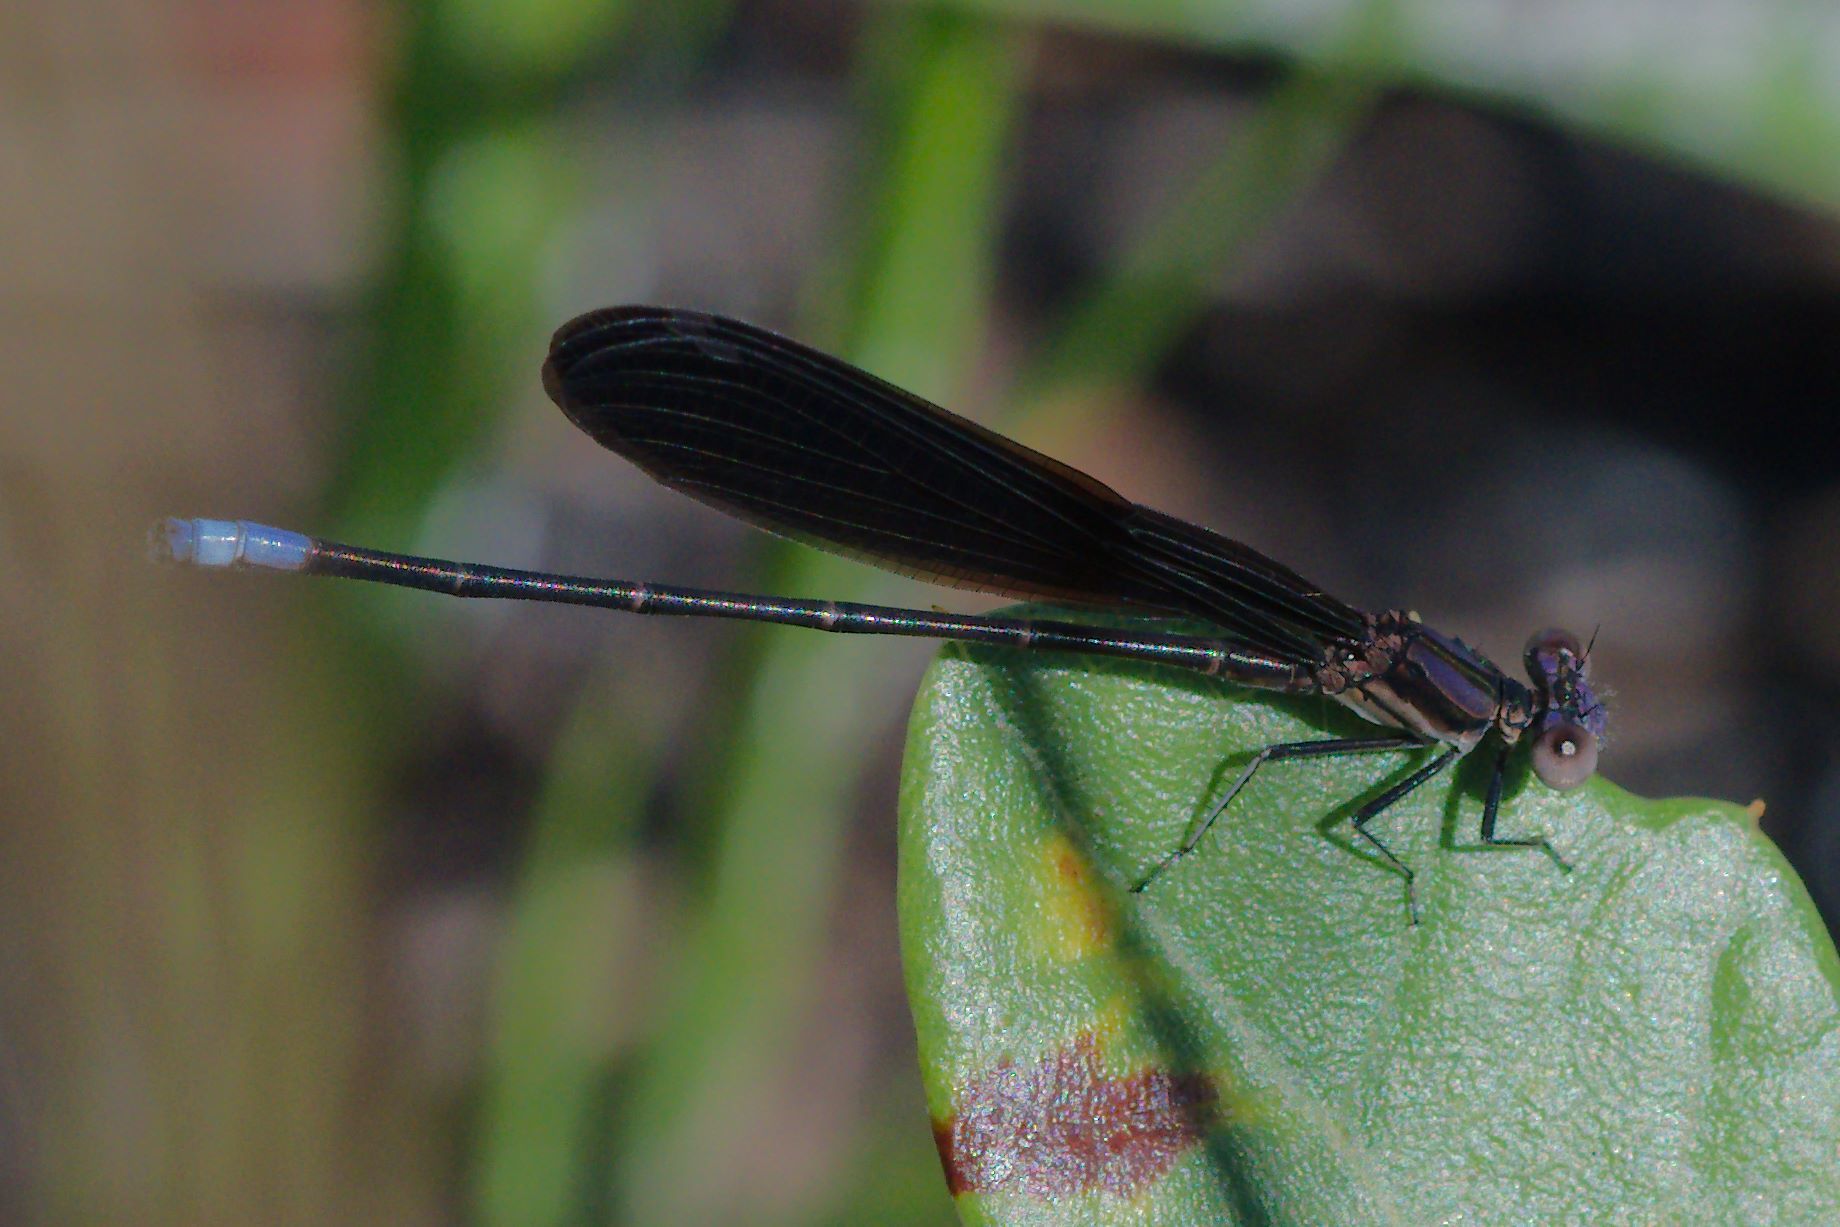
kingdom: Animalia
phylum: Arthropoda
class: Insecta
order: Odonata
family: Coenagrionidae
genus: Argia
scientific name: Argia fumipennis
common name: Variable dancer
